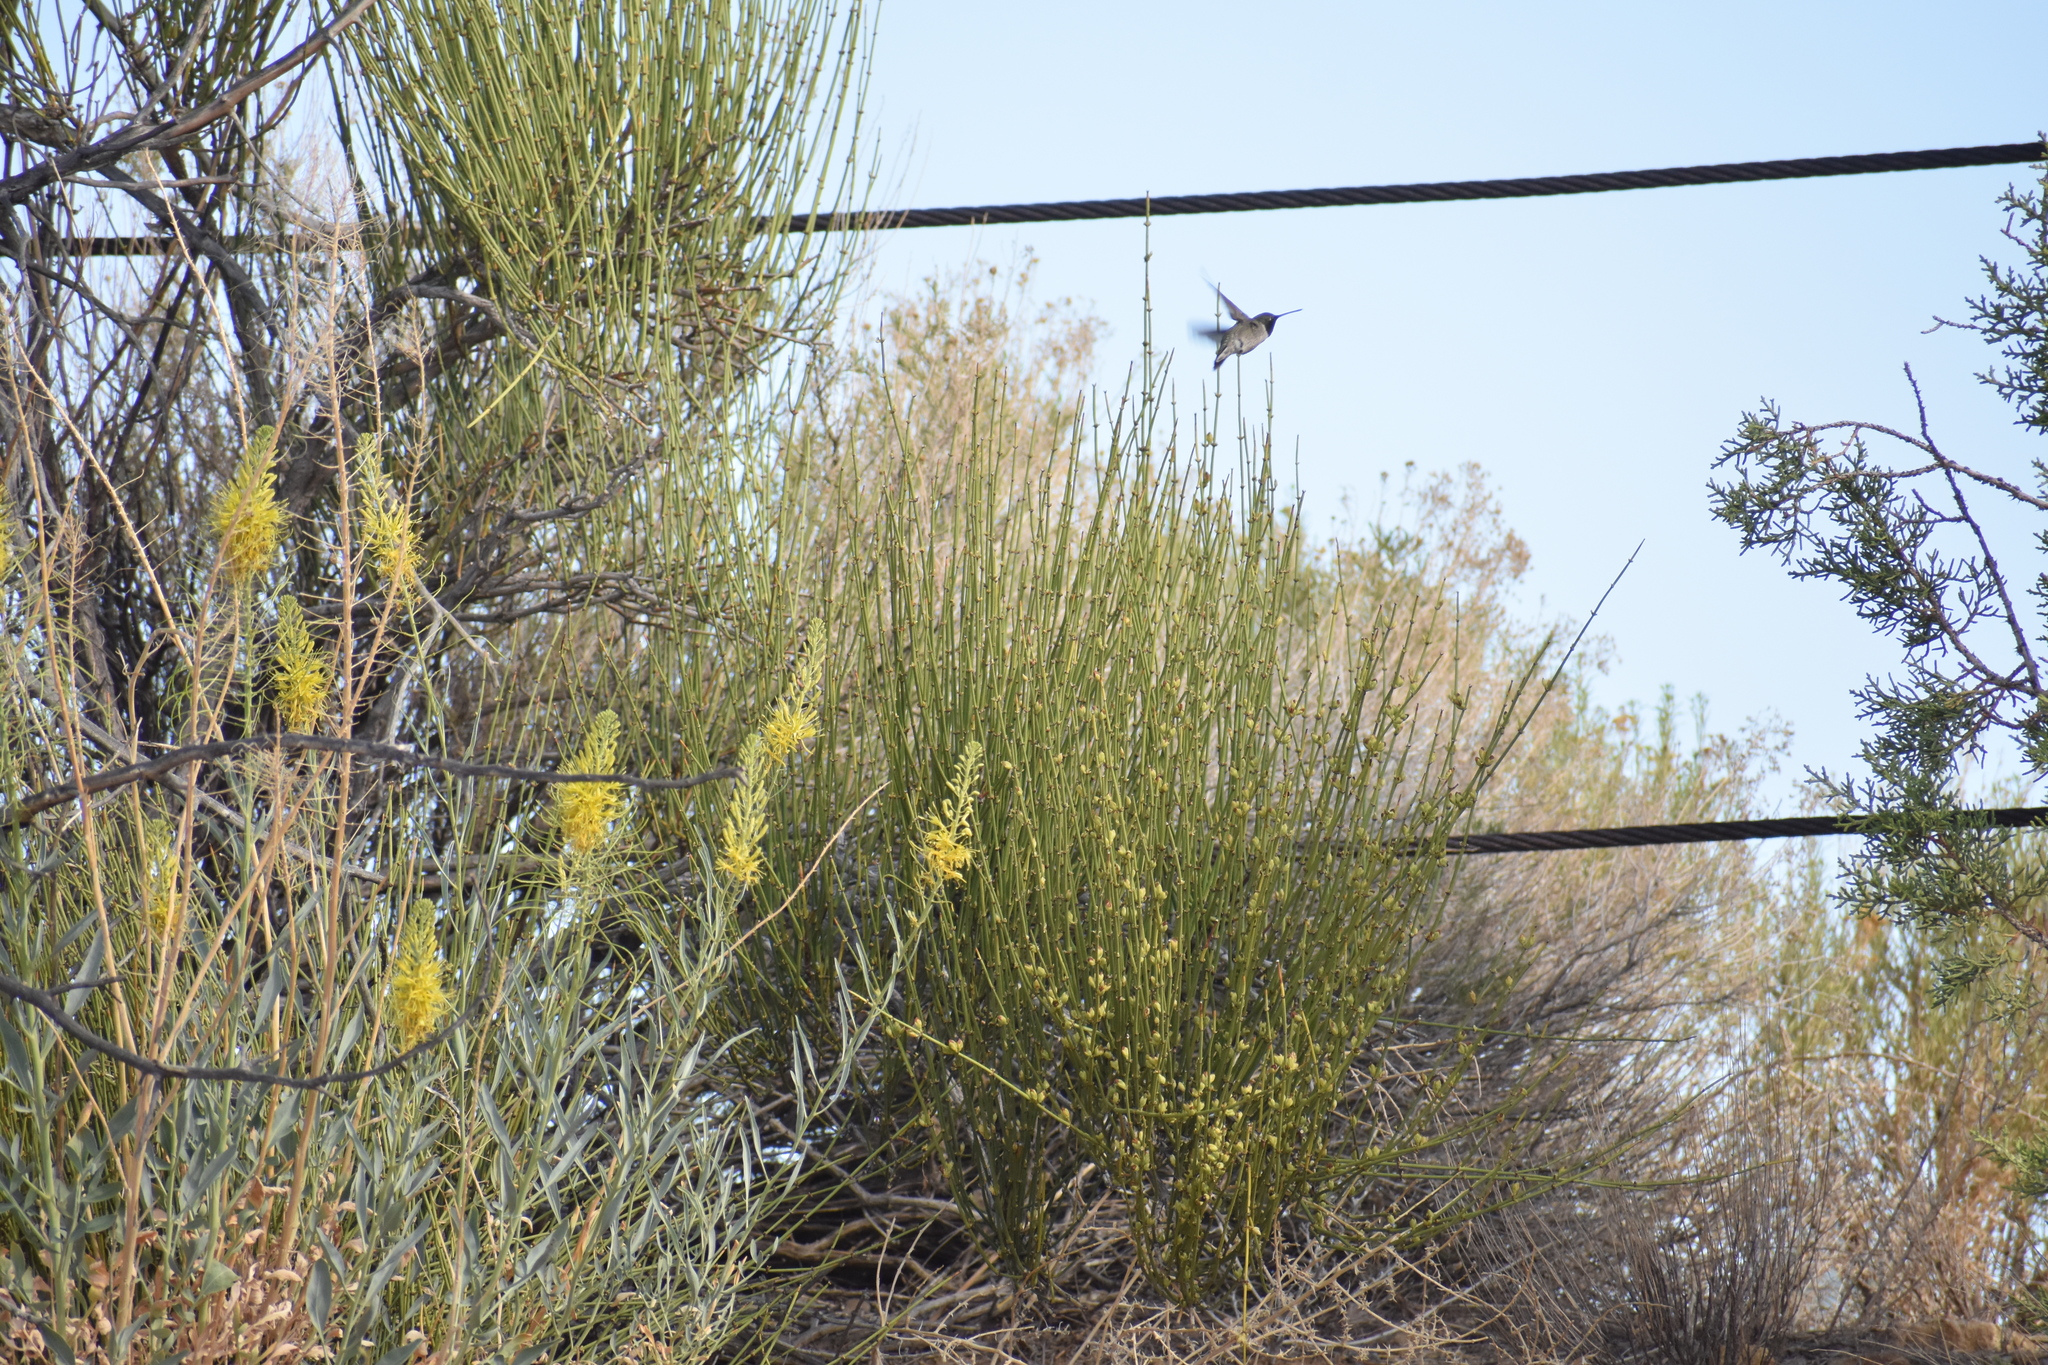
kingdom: Animalia
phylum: Chordata
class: Aves
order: Apodiformes
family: Trochilidae
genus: Archilochus
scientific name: Archilochus alexandri
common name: Black-chinned hummingbird
